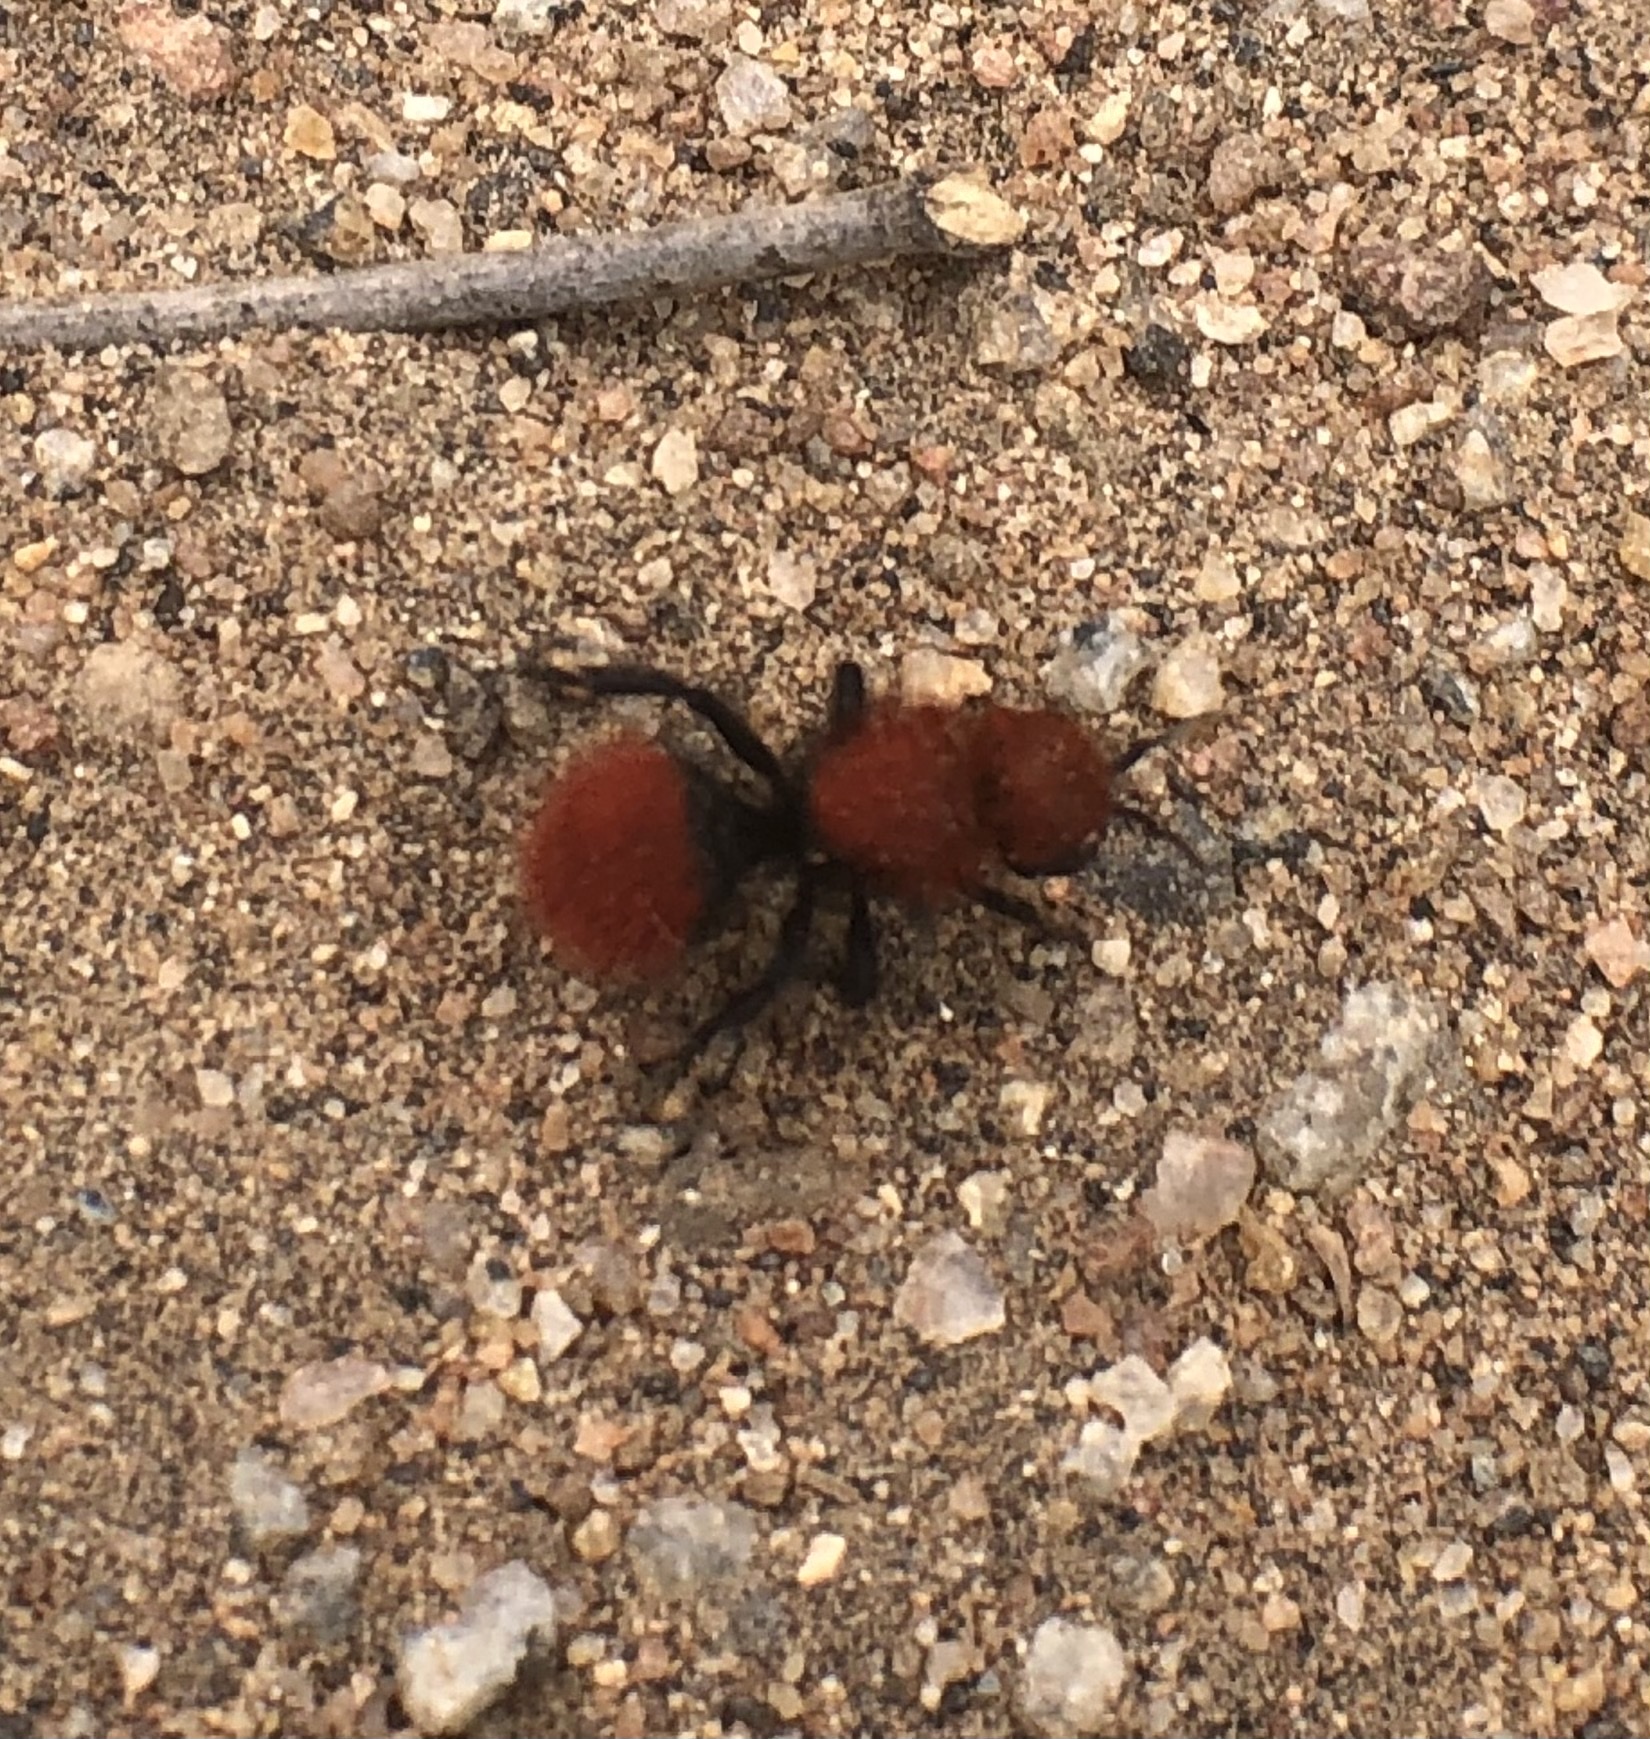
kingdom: Animalia
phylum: Arthropoda
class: Insecta
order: Hymenoptera
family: Mutillidae
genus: Dasymutilla
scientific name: Dasymutilla
